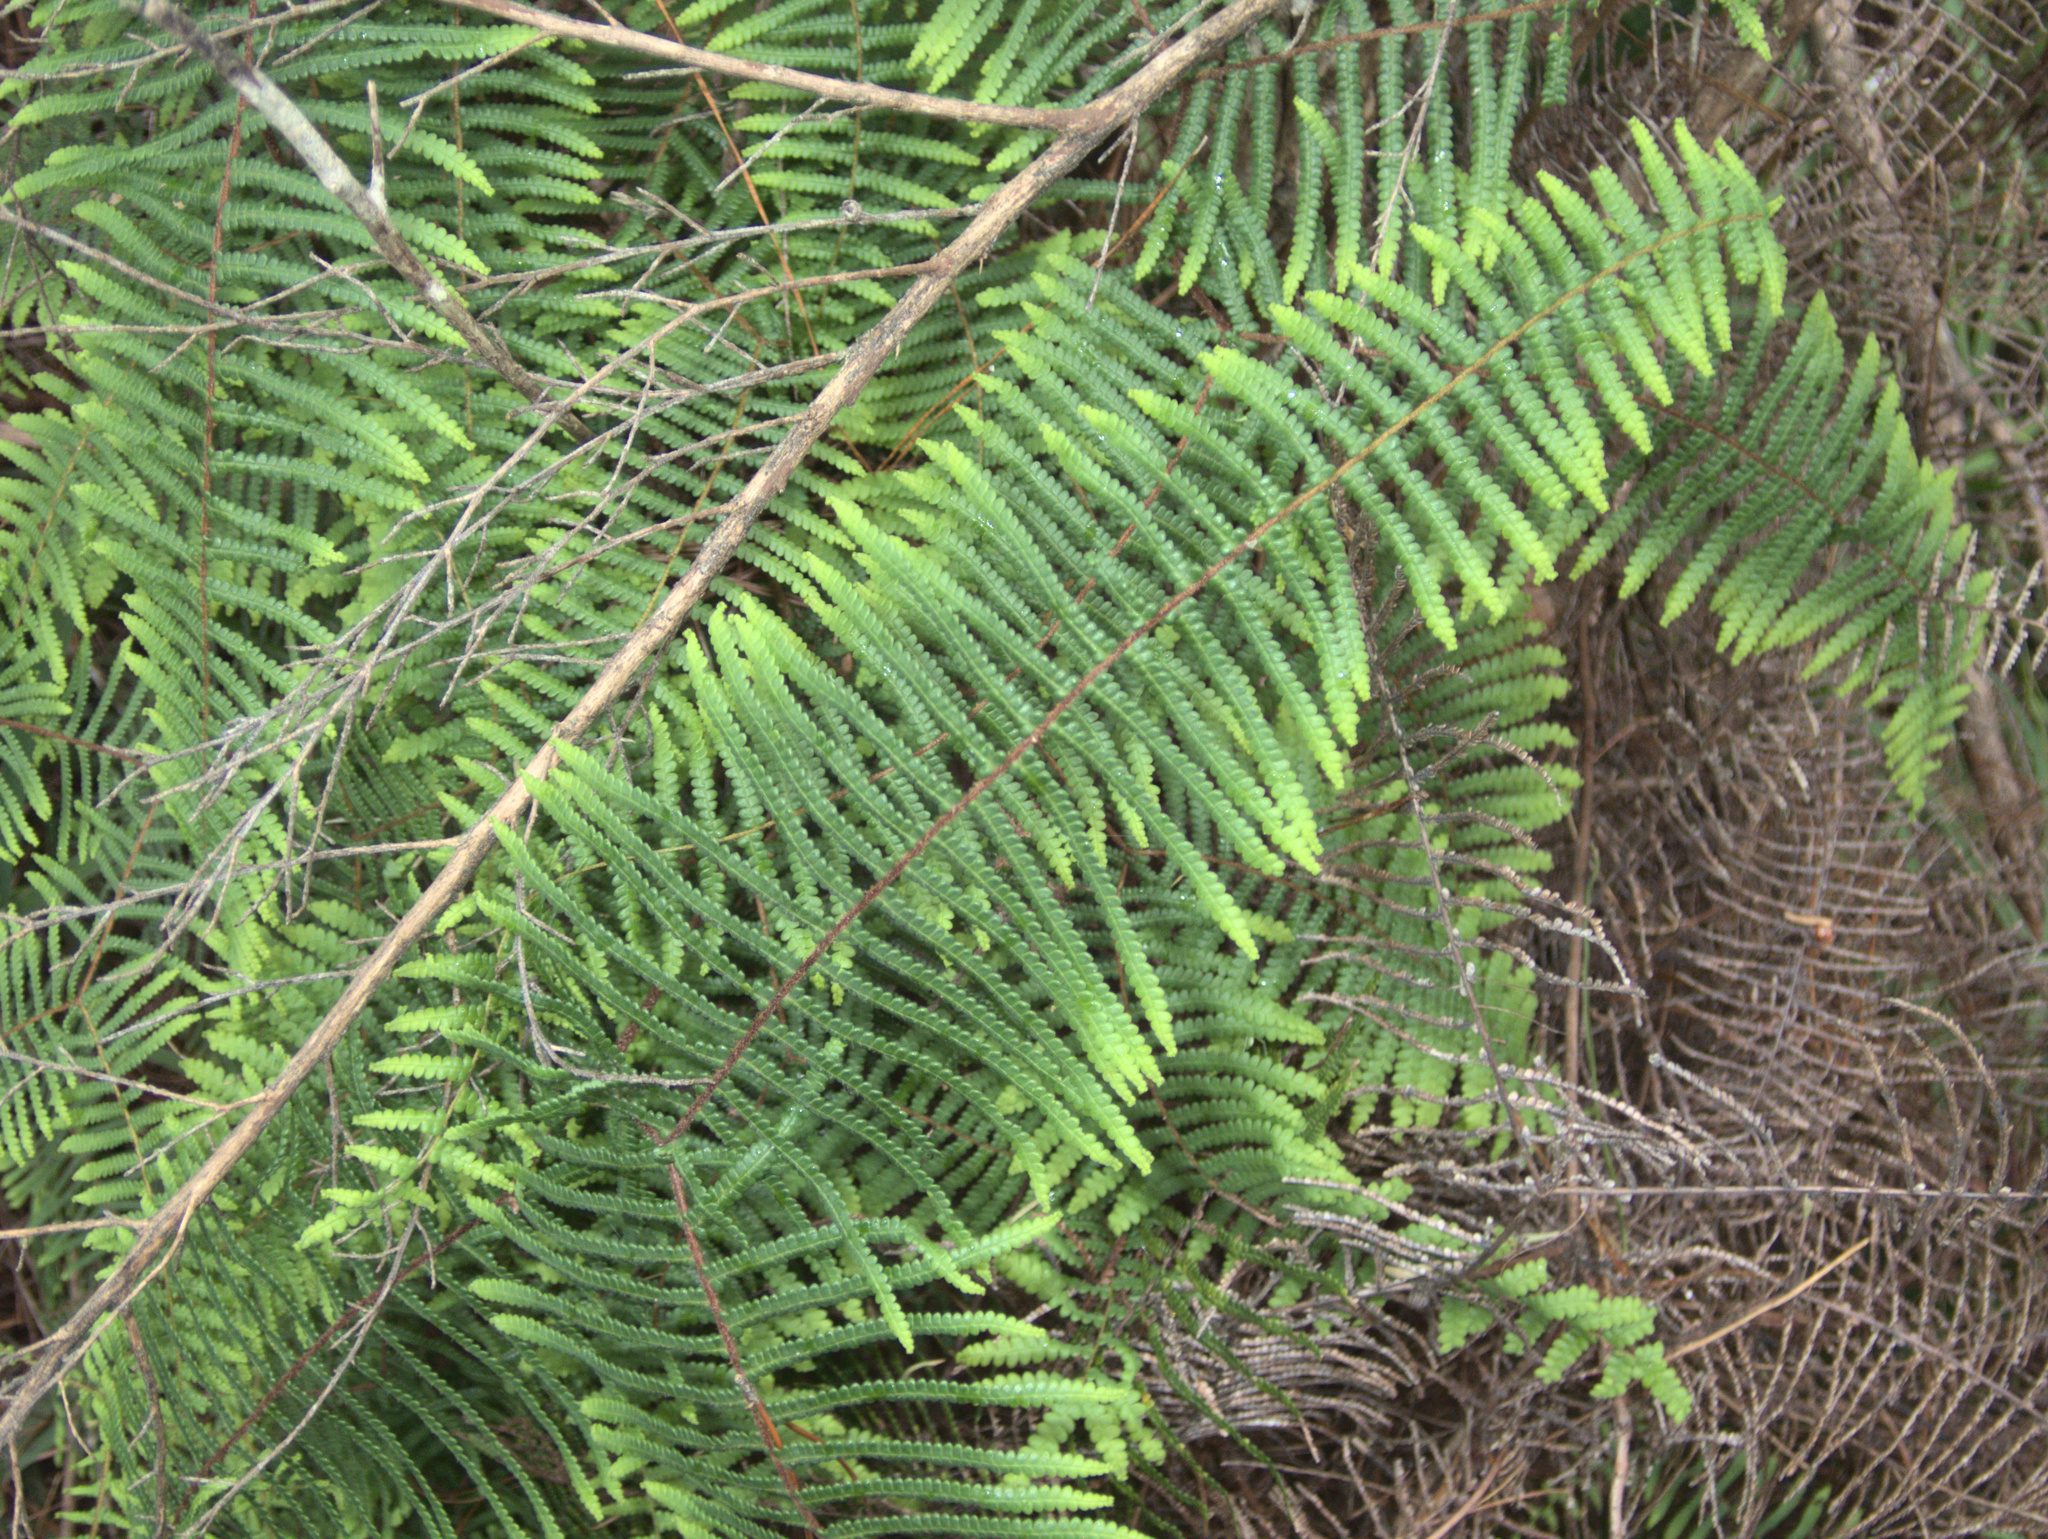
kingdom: Plantae
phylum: Tracheophyta
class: Polypodiopsida
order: Gleicheniales
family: Gleicheniaceae
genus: Gleichenia
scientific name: Gleichenia microphylla
